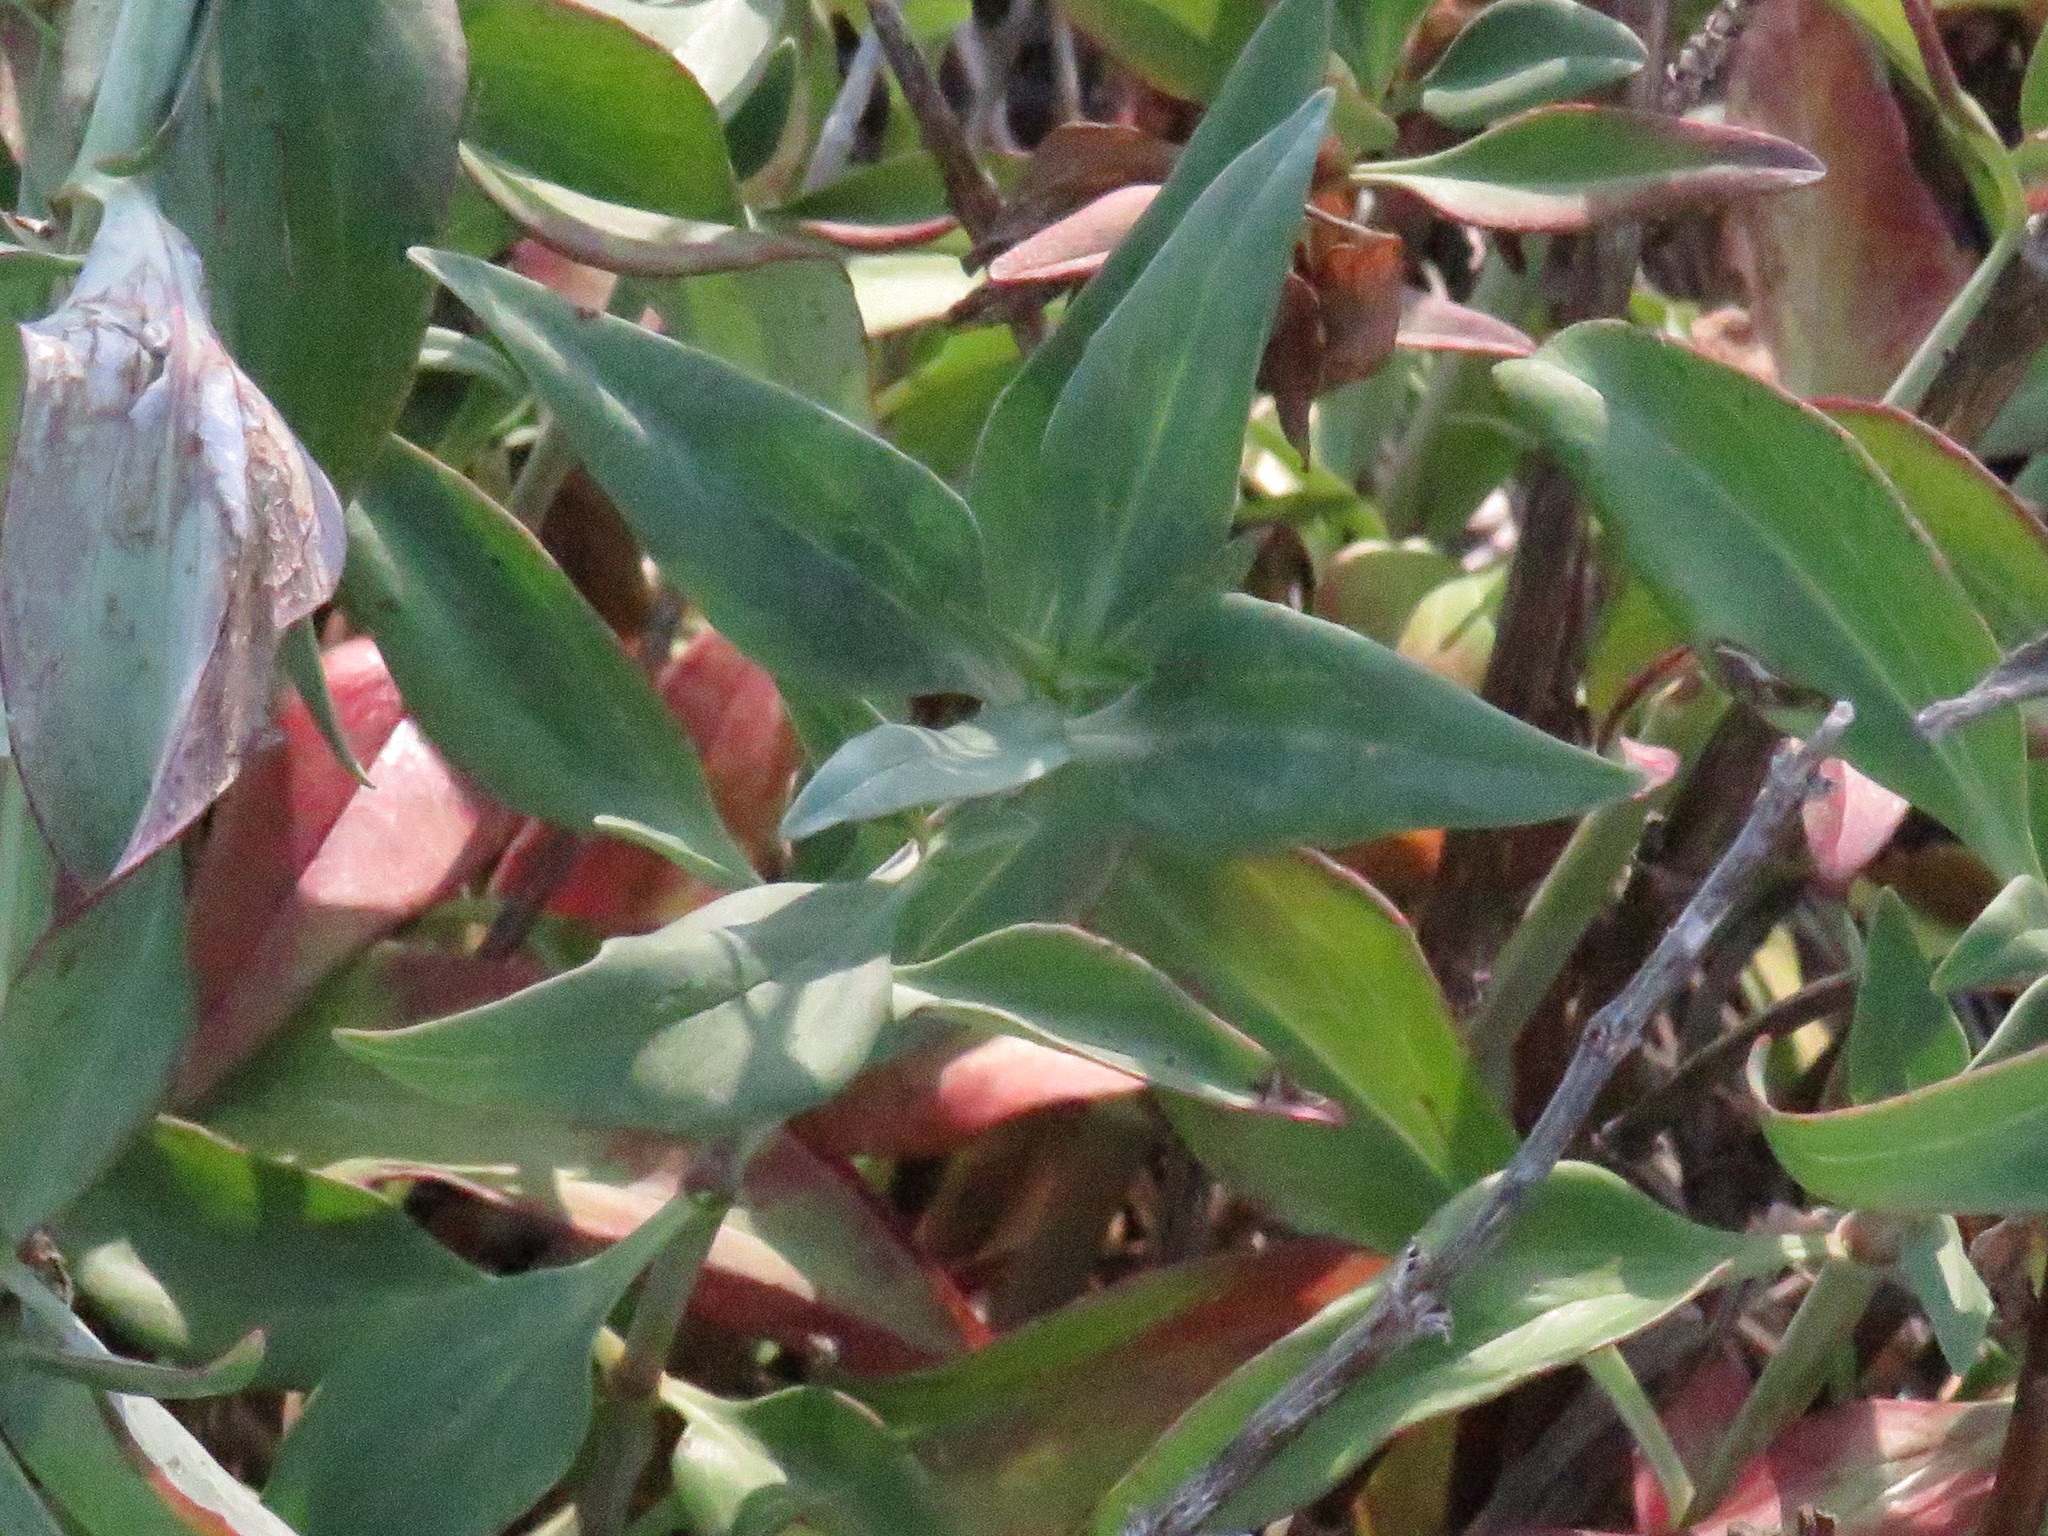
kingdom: Plantae
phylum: Tracheophyta
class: Magnoliopsida
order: Dipsacales
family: Caprifoliaceae
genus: Centranthus
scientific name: Centranthus ruber
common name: Red valerian
